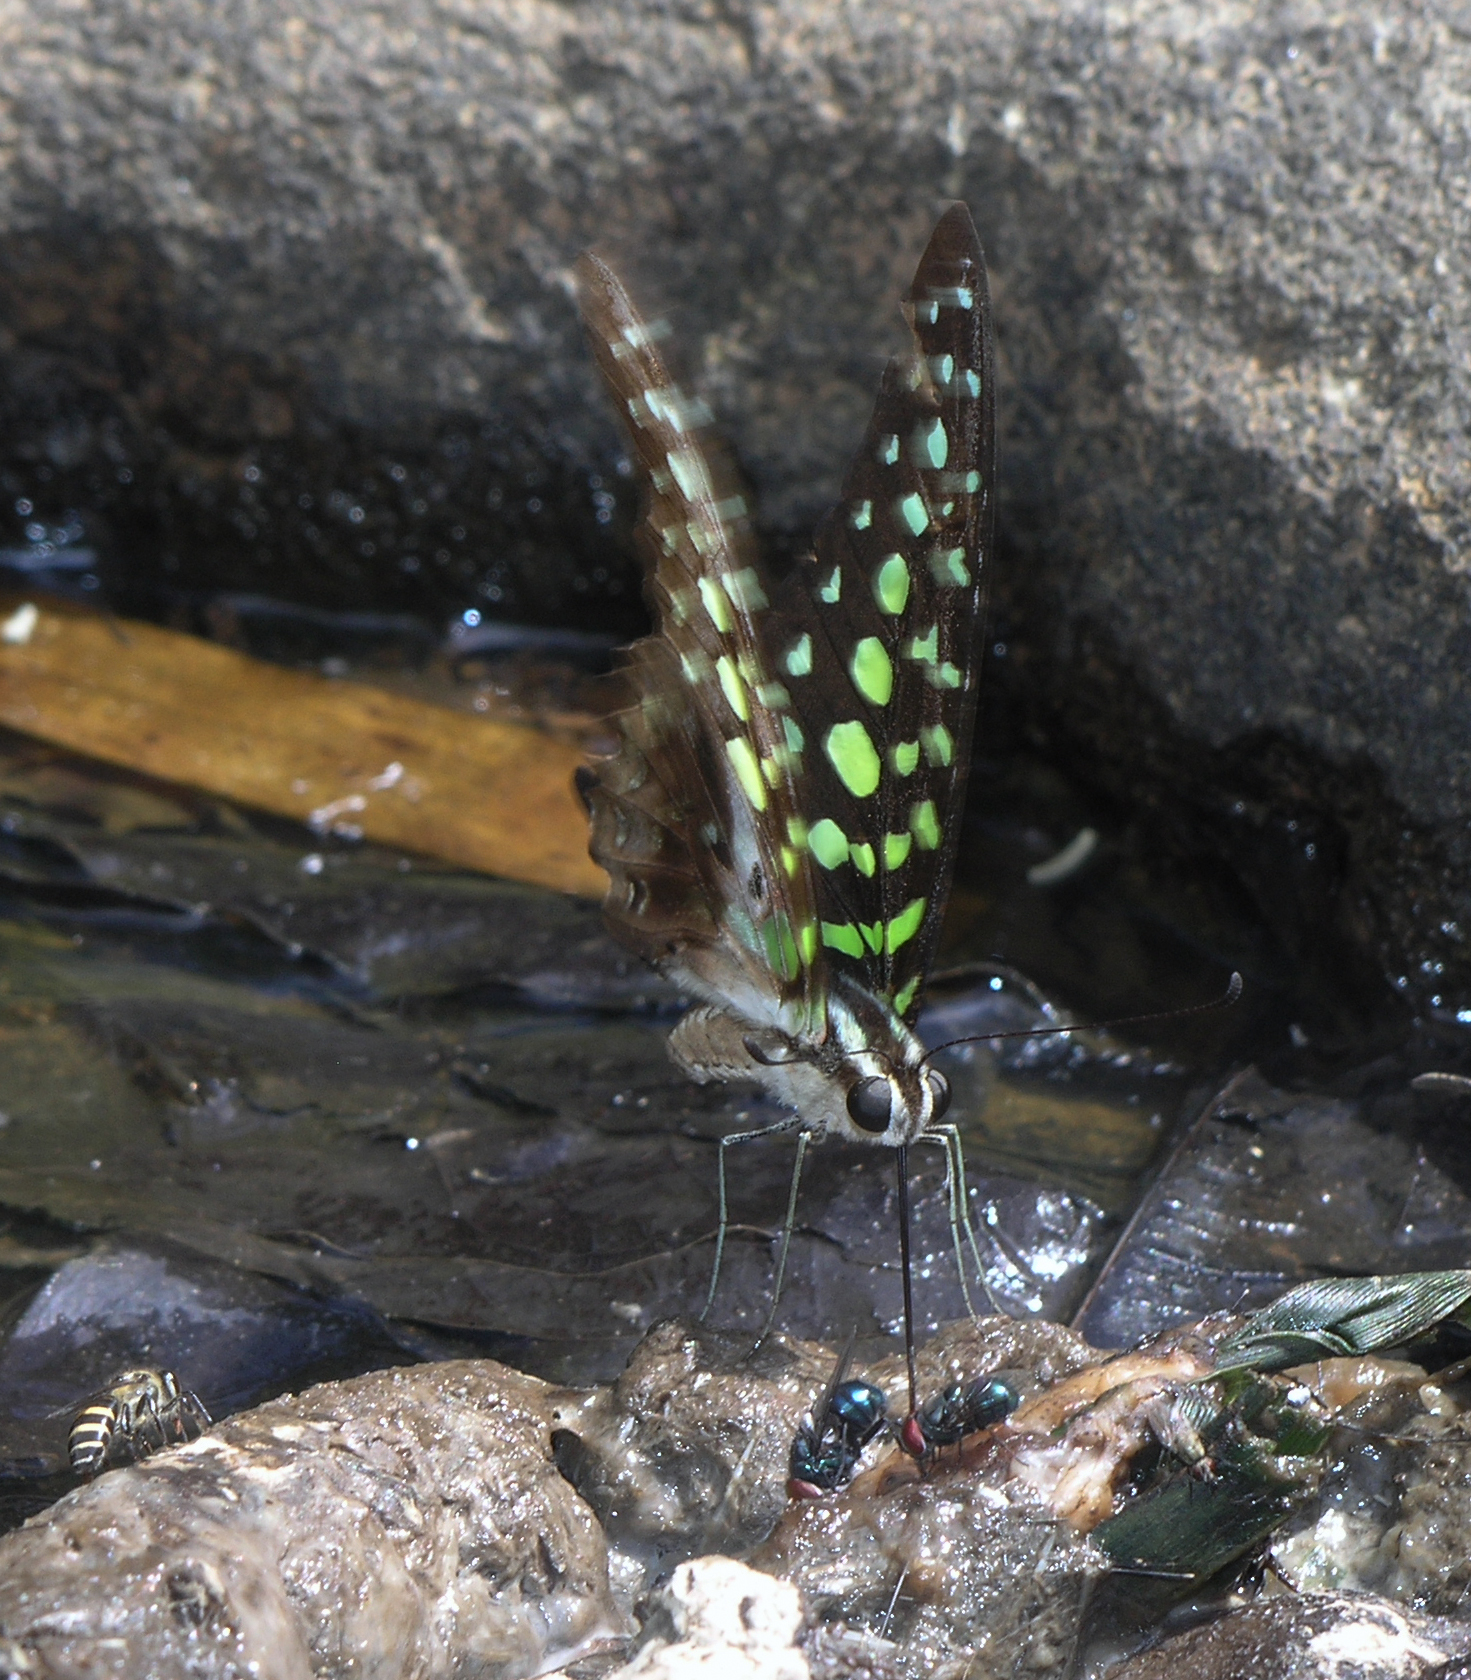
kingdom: Animalia
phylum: Arthropoda
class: Insecta
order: Lepidoptera
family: Papilionidae
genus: Graphium
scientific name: Graphium agamemnon
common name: Tailed jay
